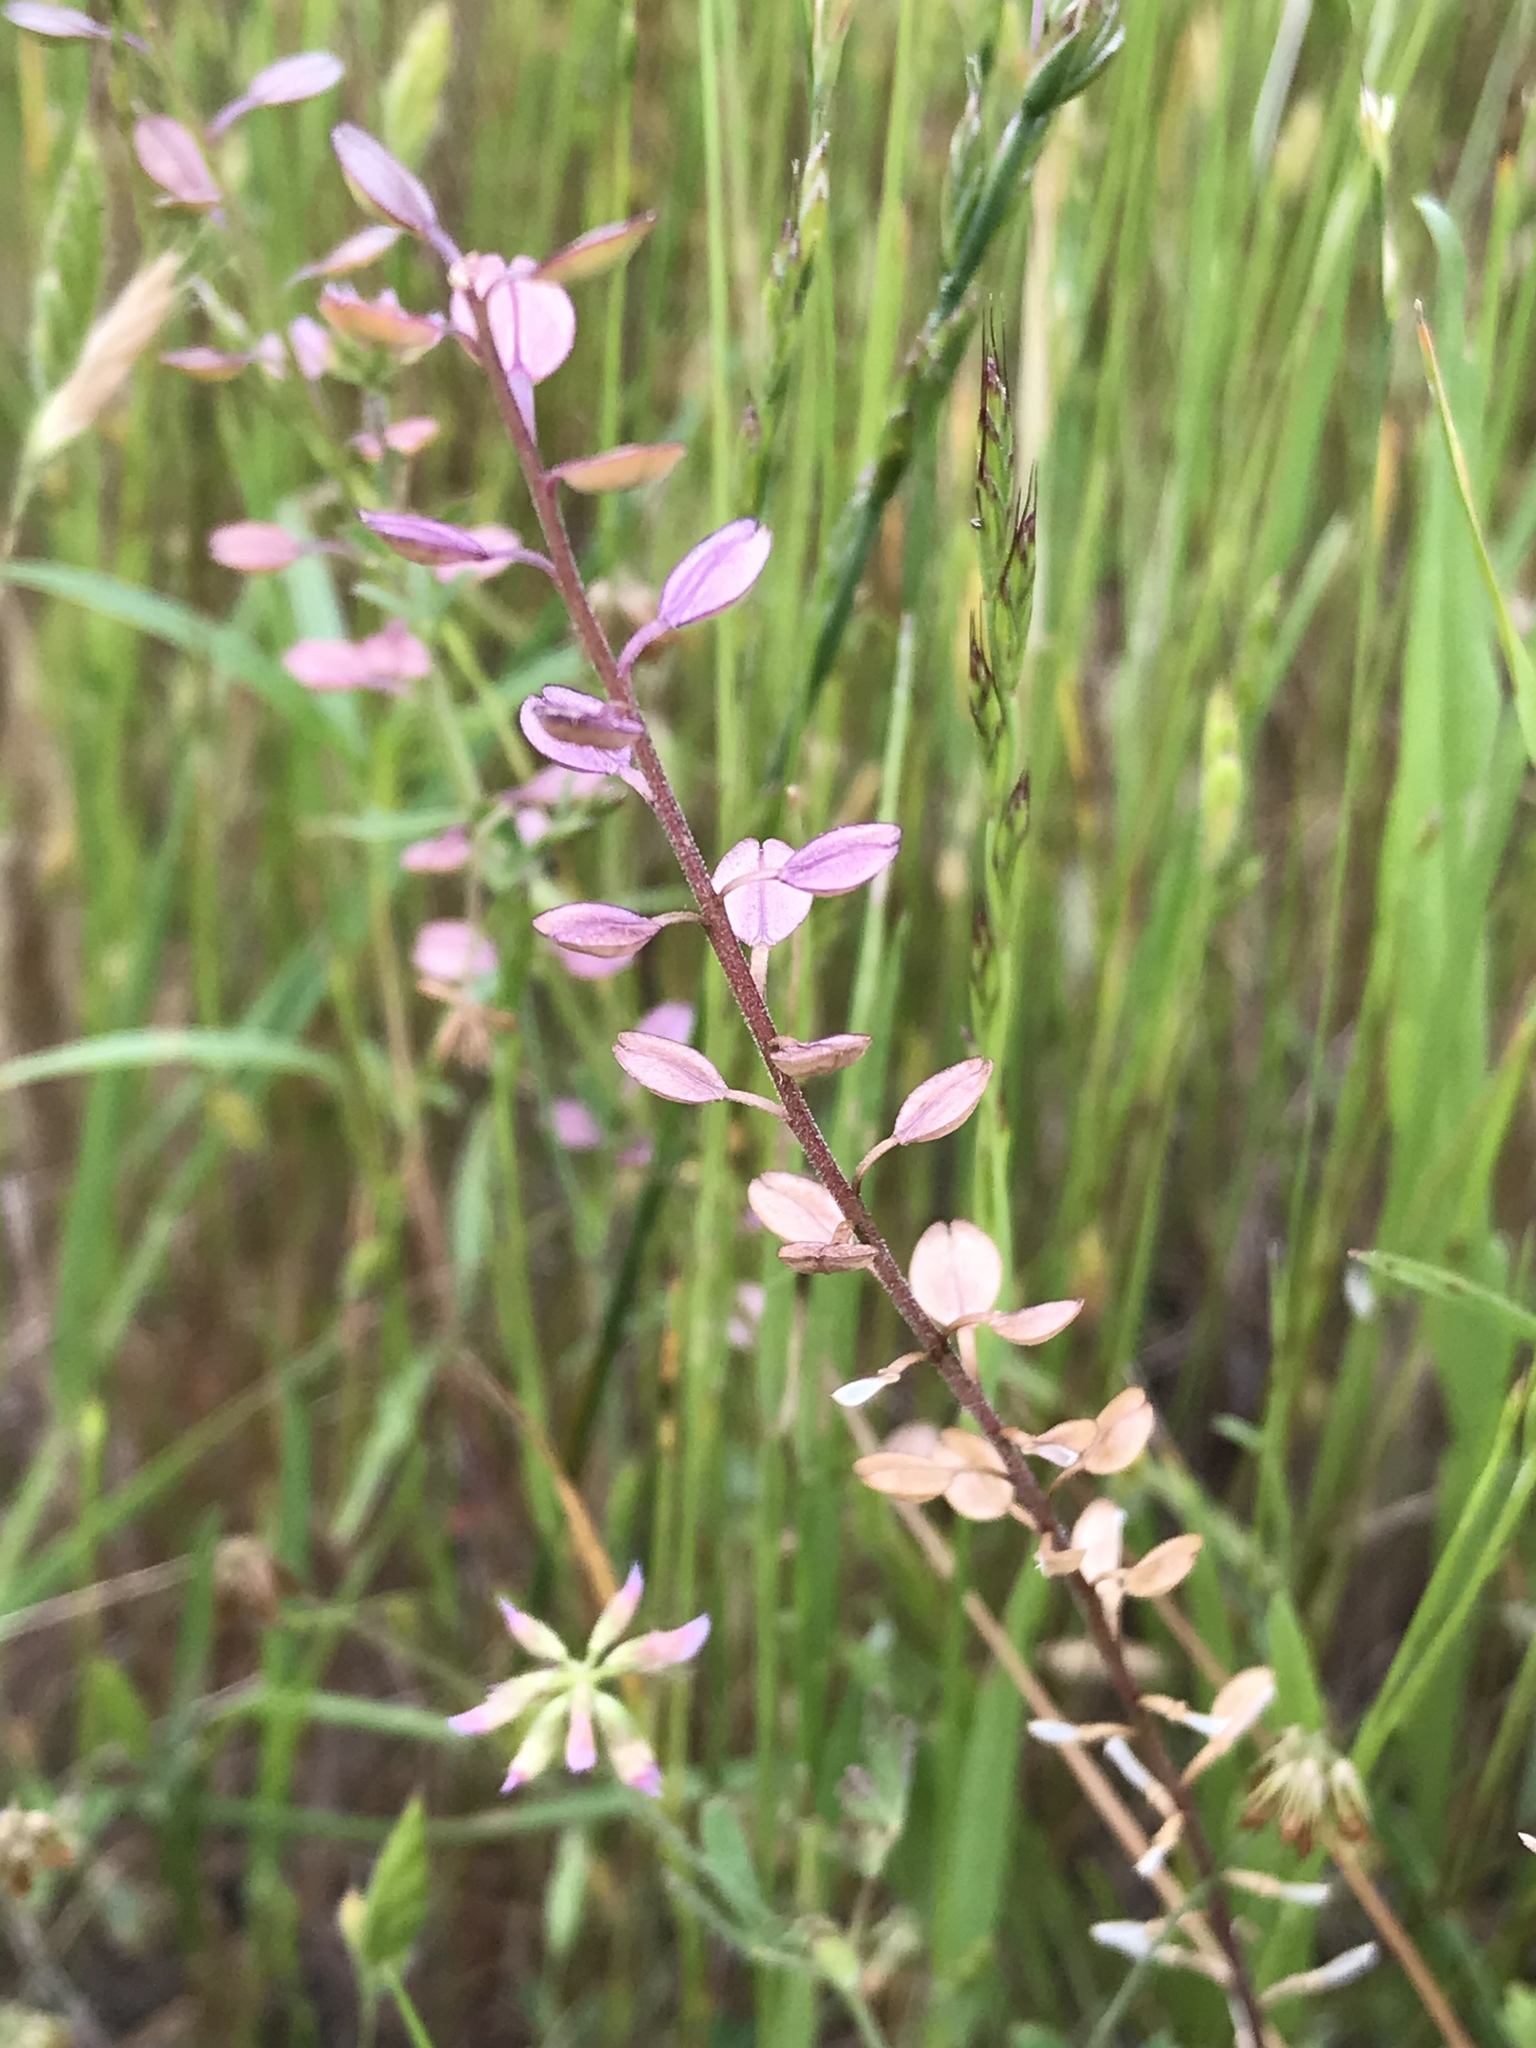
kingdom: Plantae
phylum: Tracheophyta
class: Magnoliopsida
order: Brassicales
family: Brassicaceae
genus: Lepidium
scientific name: Lepidium nitidum
